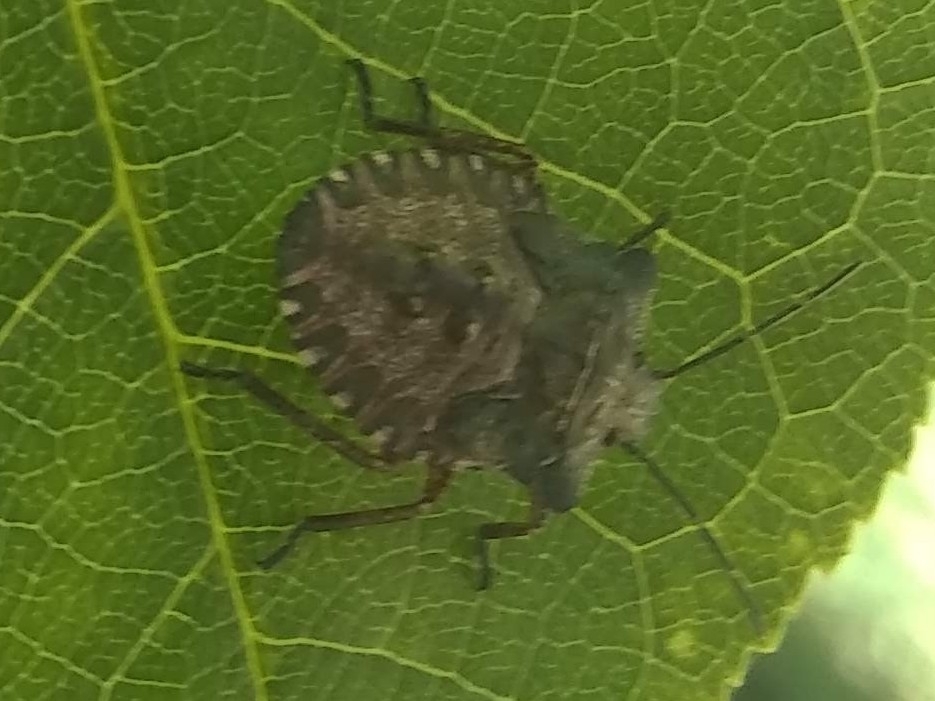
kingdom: Animalia
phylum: Arthropoda
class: Insecta
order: Hemiptera
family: Pentatomidae
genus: Pentatoma
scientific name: Pentatoma rufipes
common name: Forest bug
